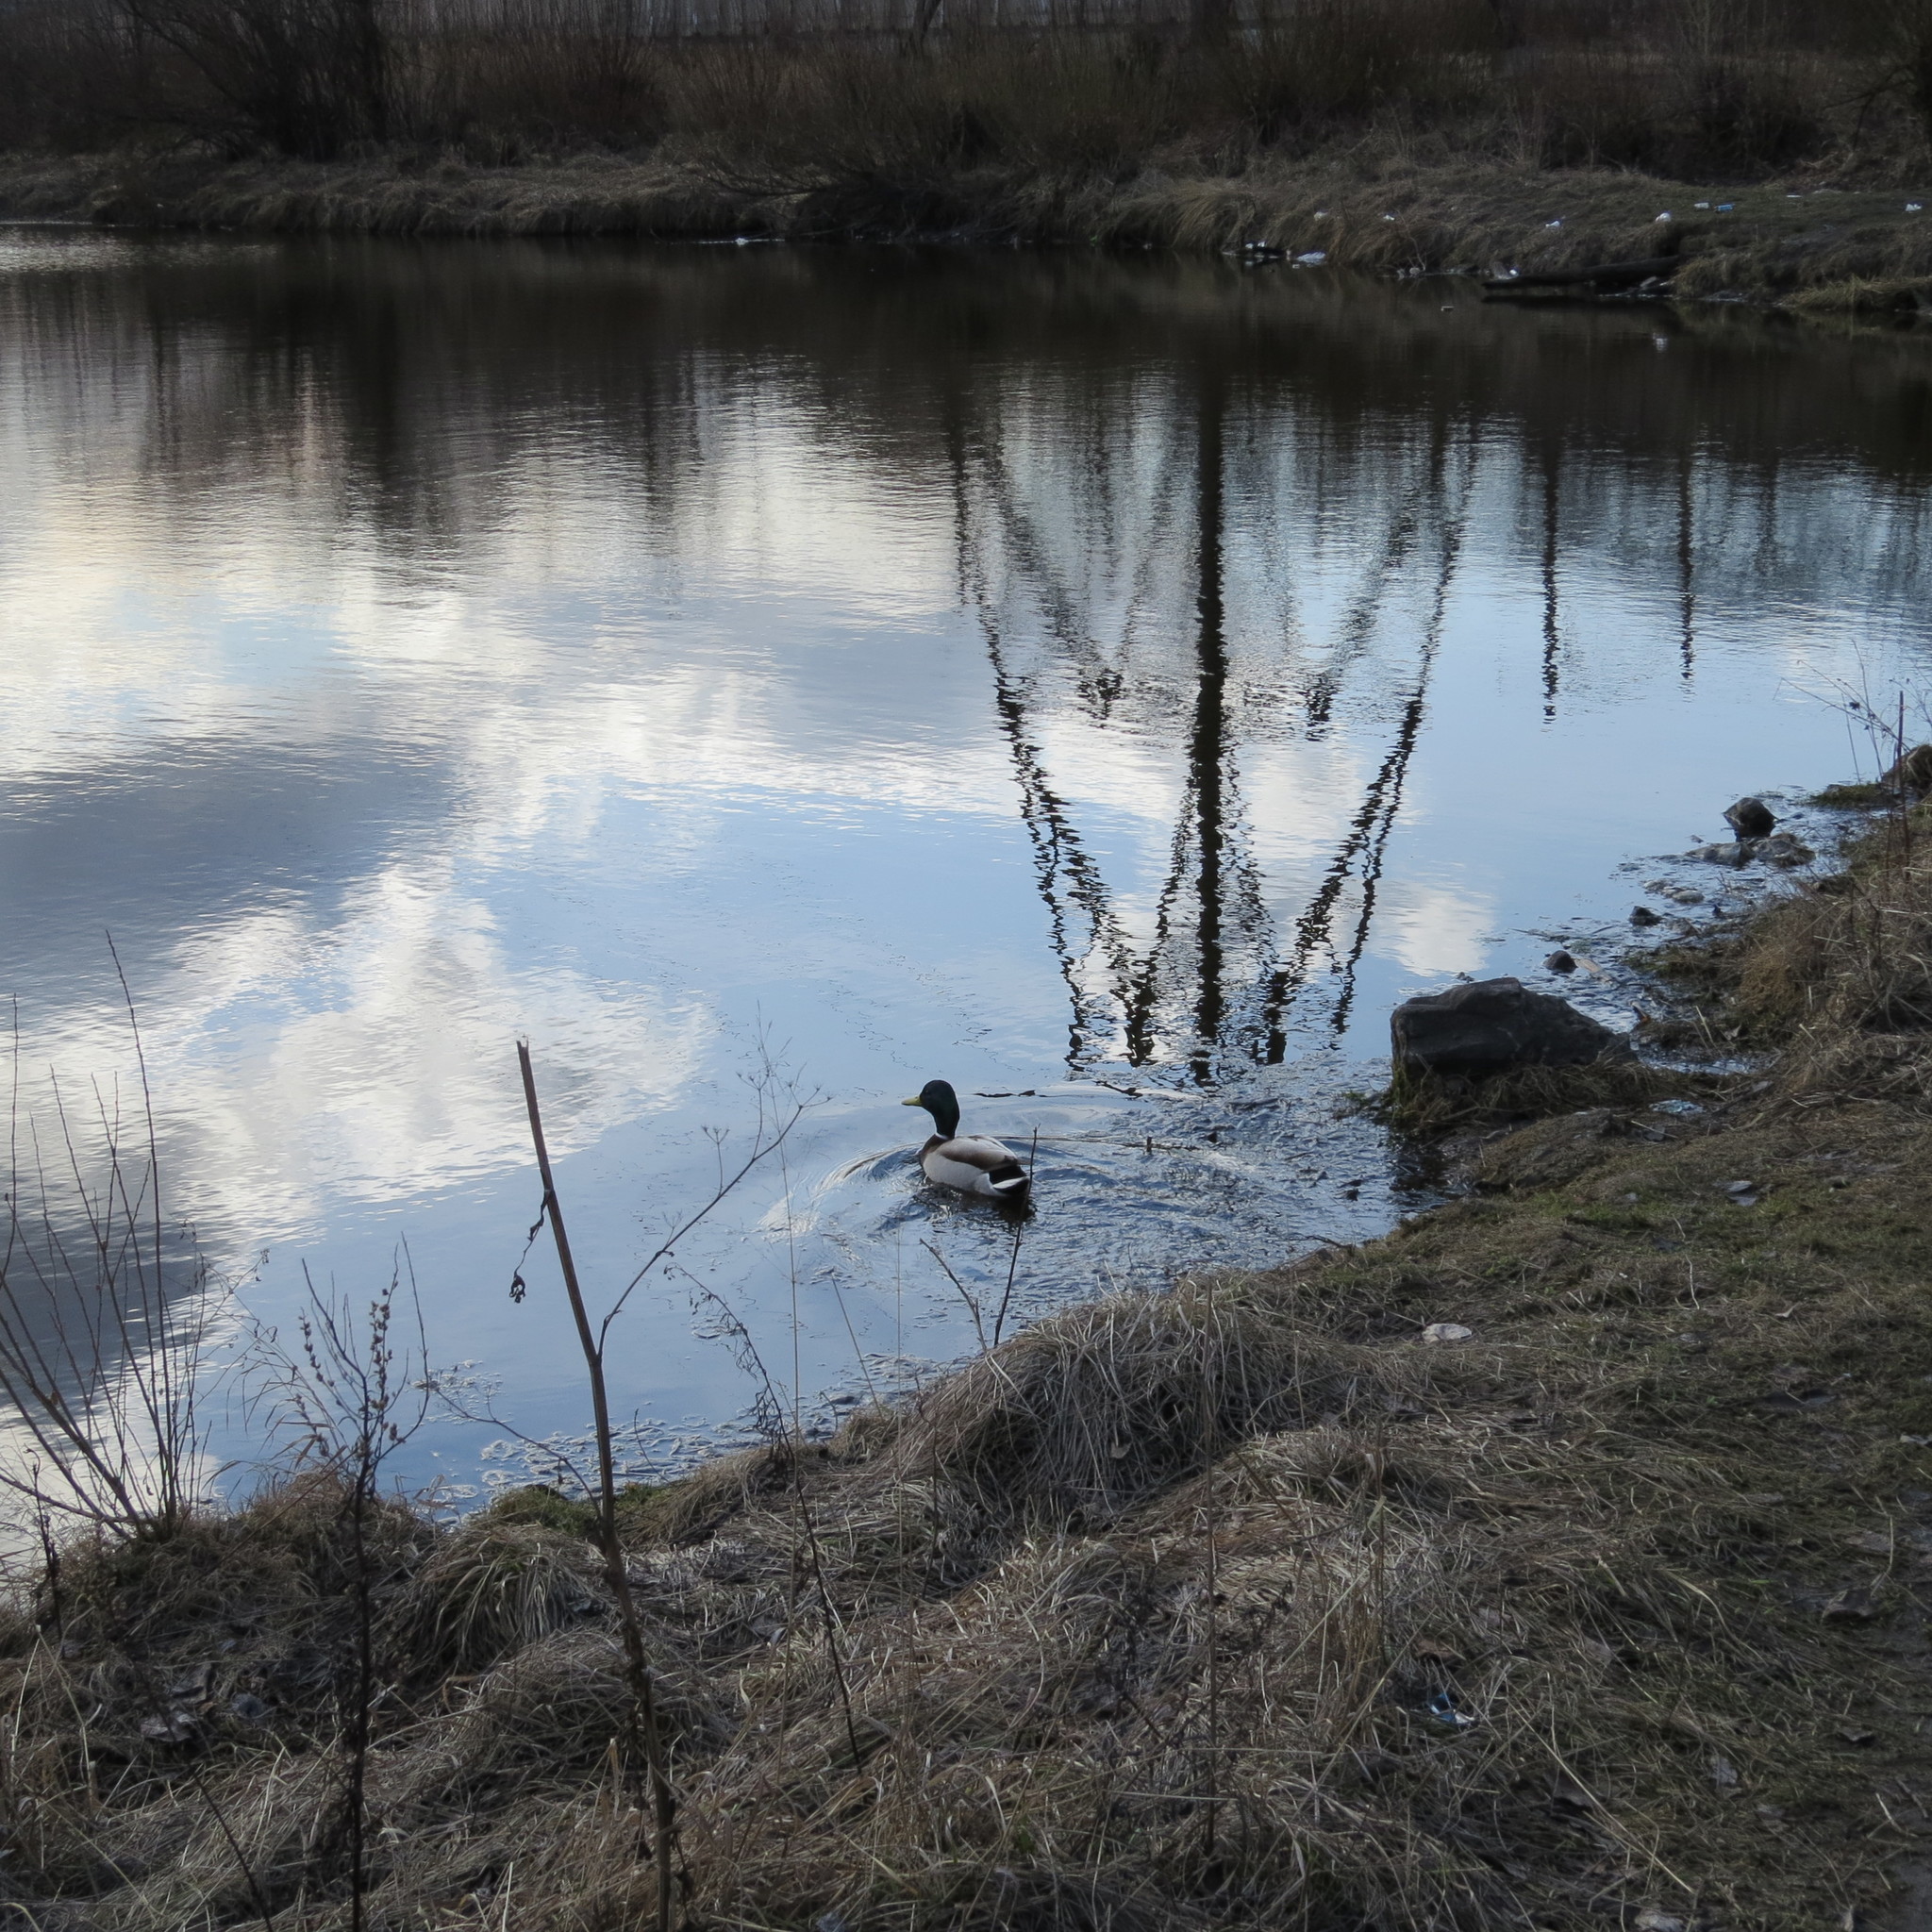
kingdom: Animalia
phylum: Chordata
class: Aves
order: Anseriformes
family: Anatidae
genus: Anas
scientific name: Anas platyrhynchos
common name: Mallard
